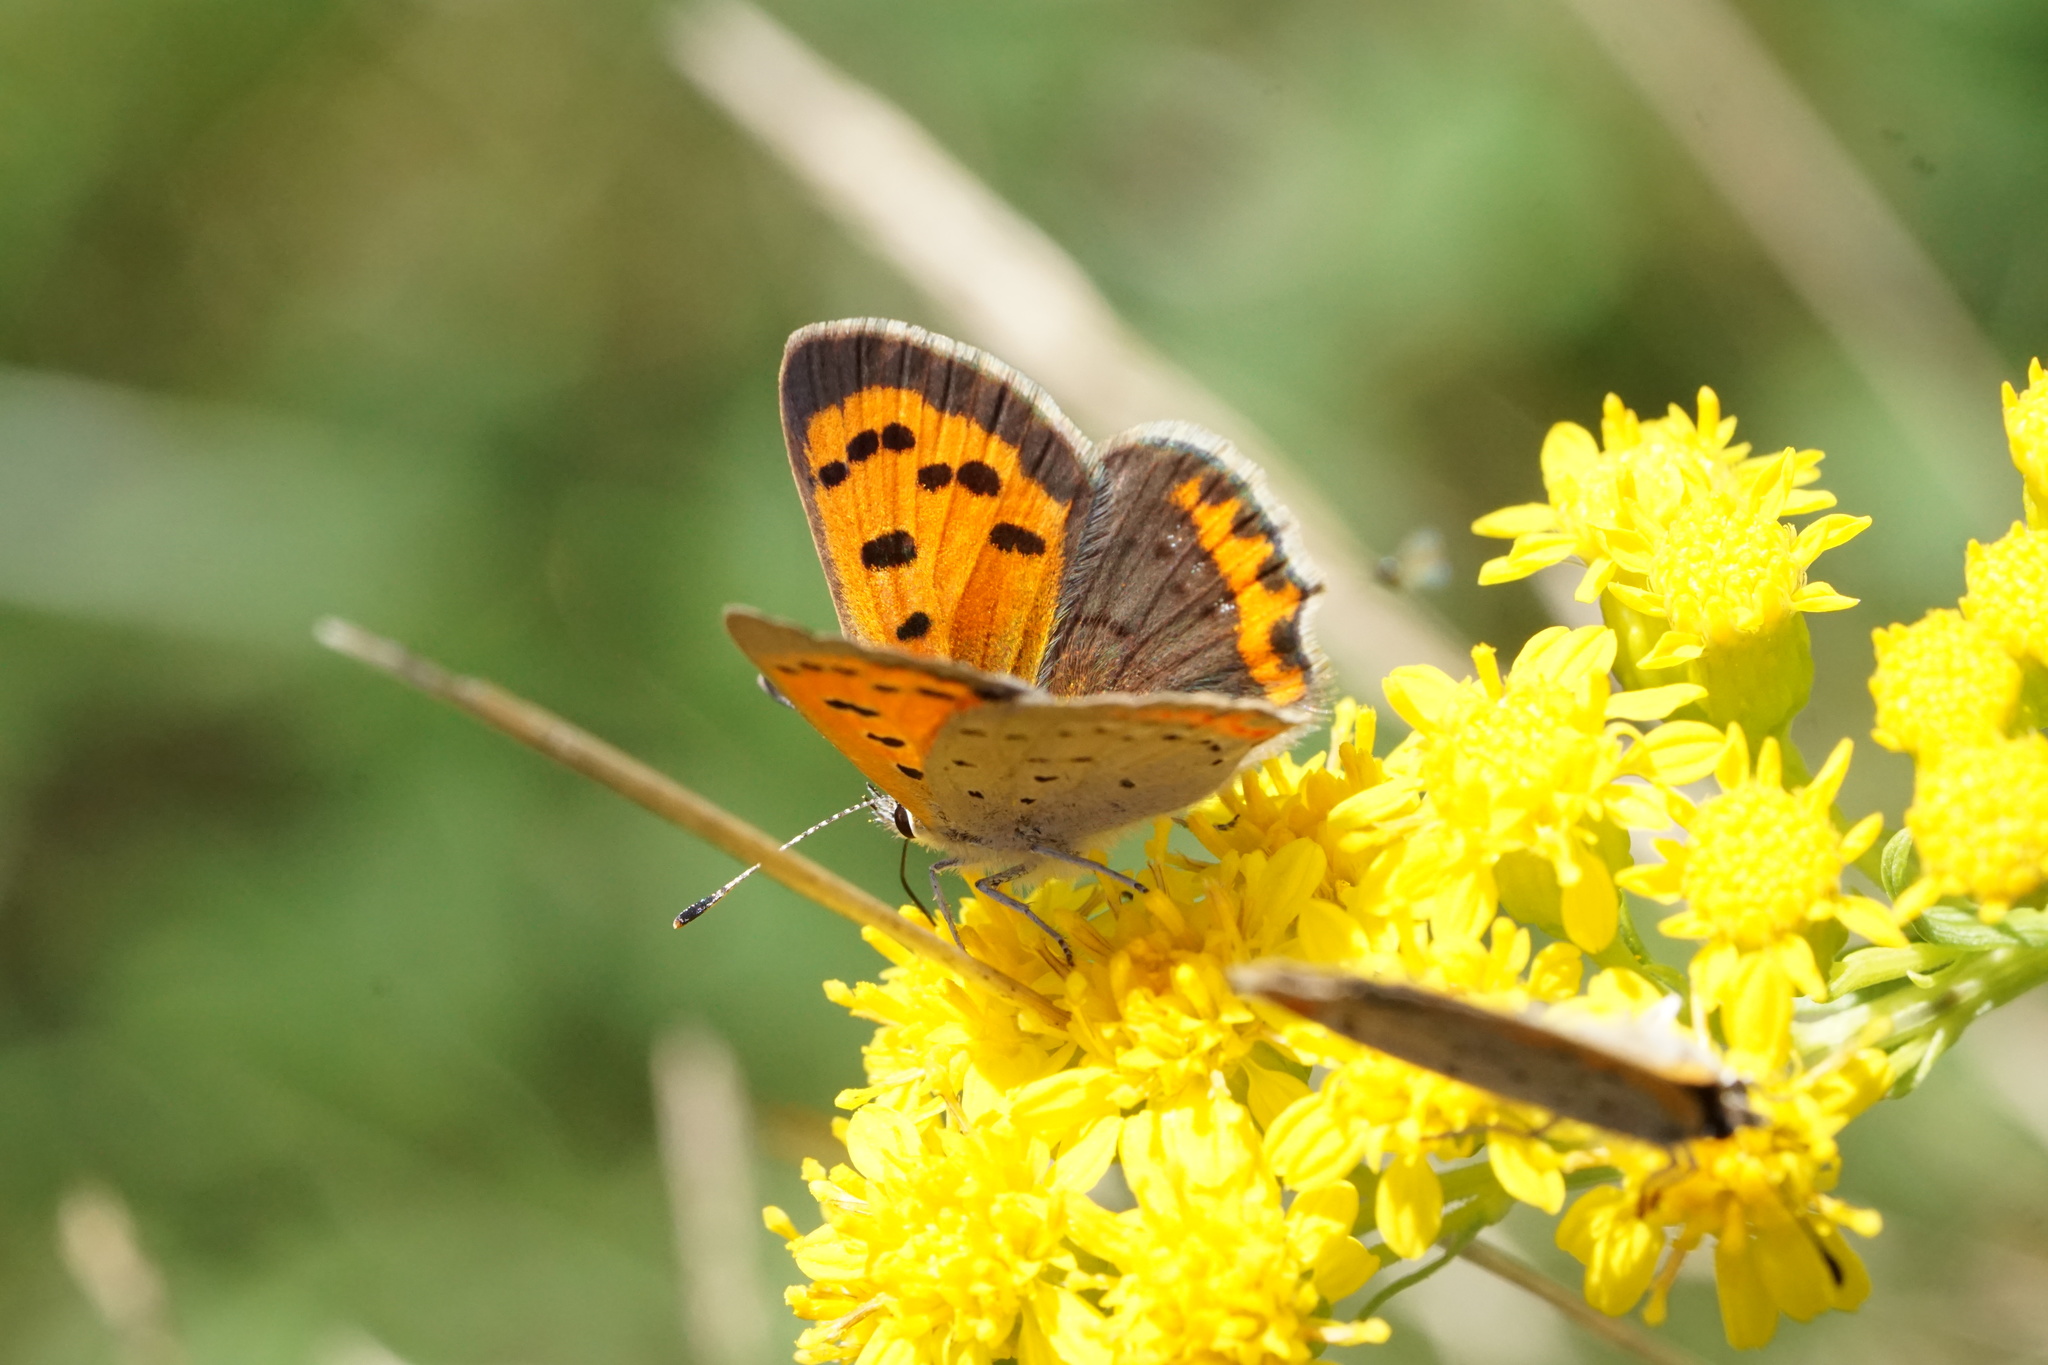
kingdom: Animalia
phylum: Arthropoda
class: Insecta
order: Lepidoptera
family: Lycaenidae
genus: Lycaena
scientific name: Lycaena hypophlaeas
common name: American copper
